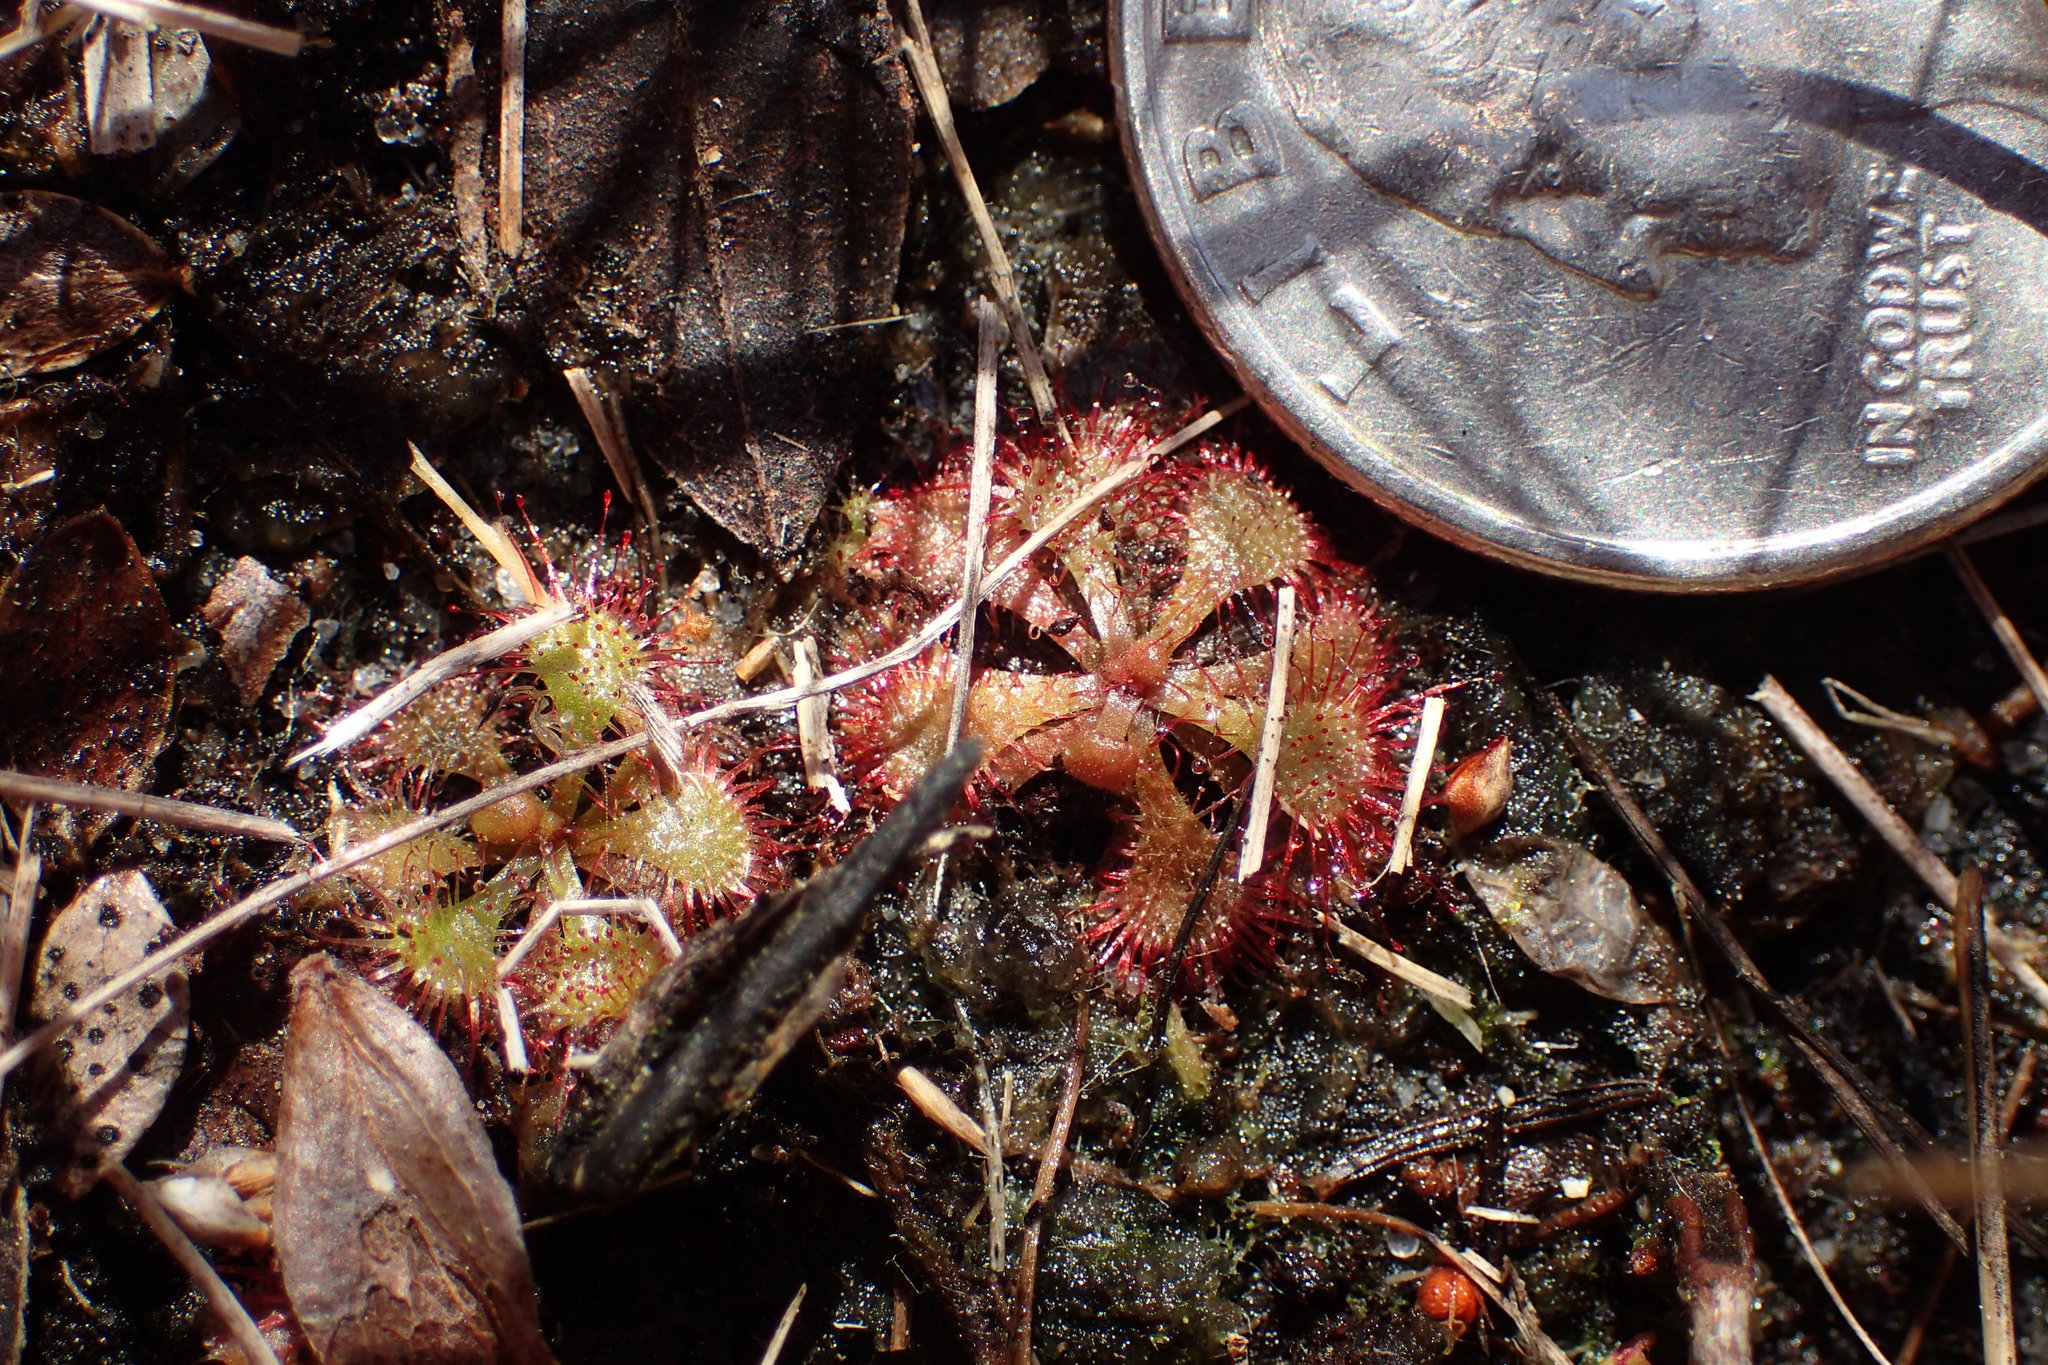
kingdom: Plantae
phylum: Tracheophyta
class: Magnoliopsida
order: Caryophyllales
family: Droseraceae
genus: Drosera
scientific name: Drosera brevifolia
